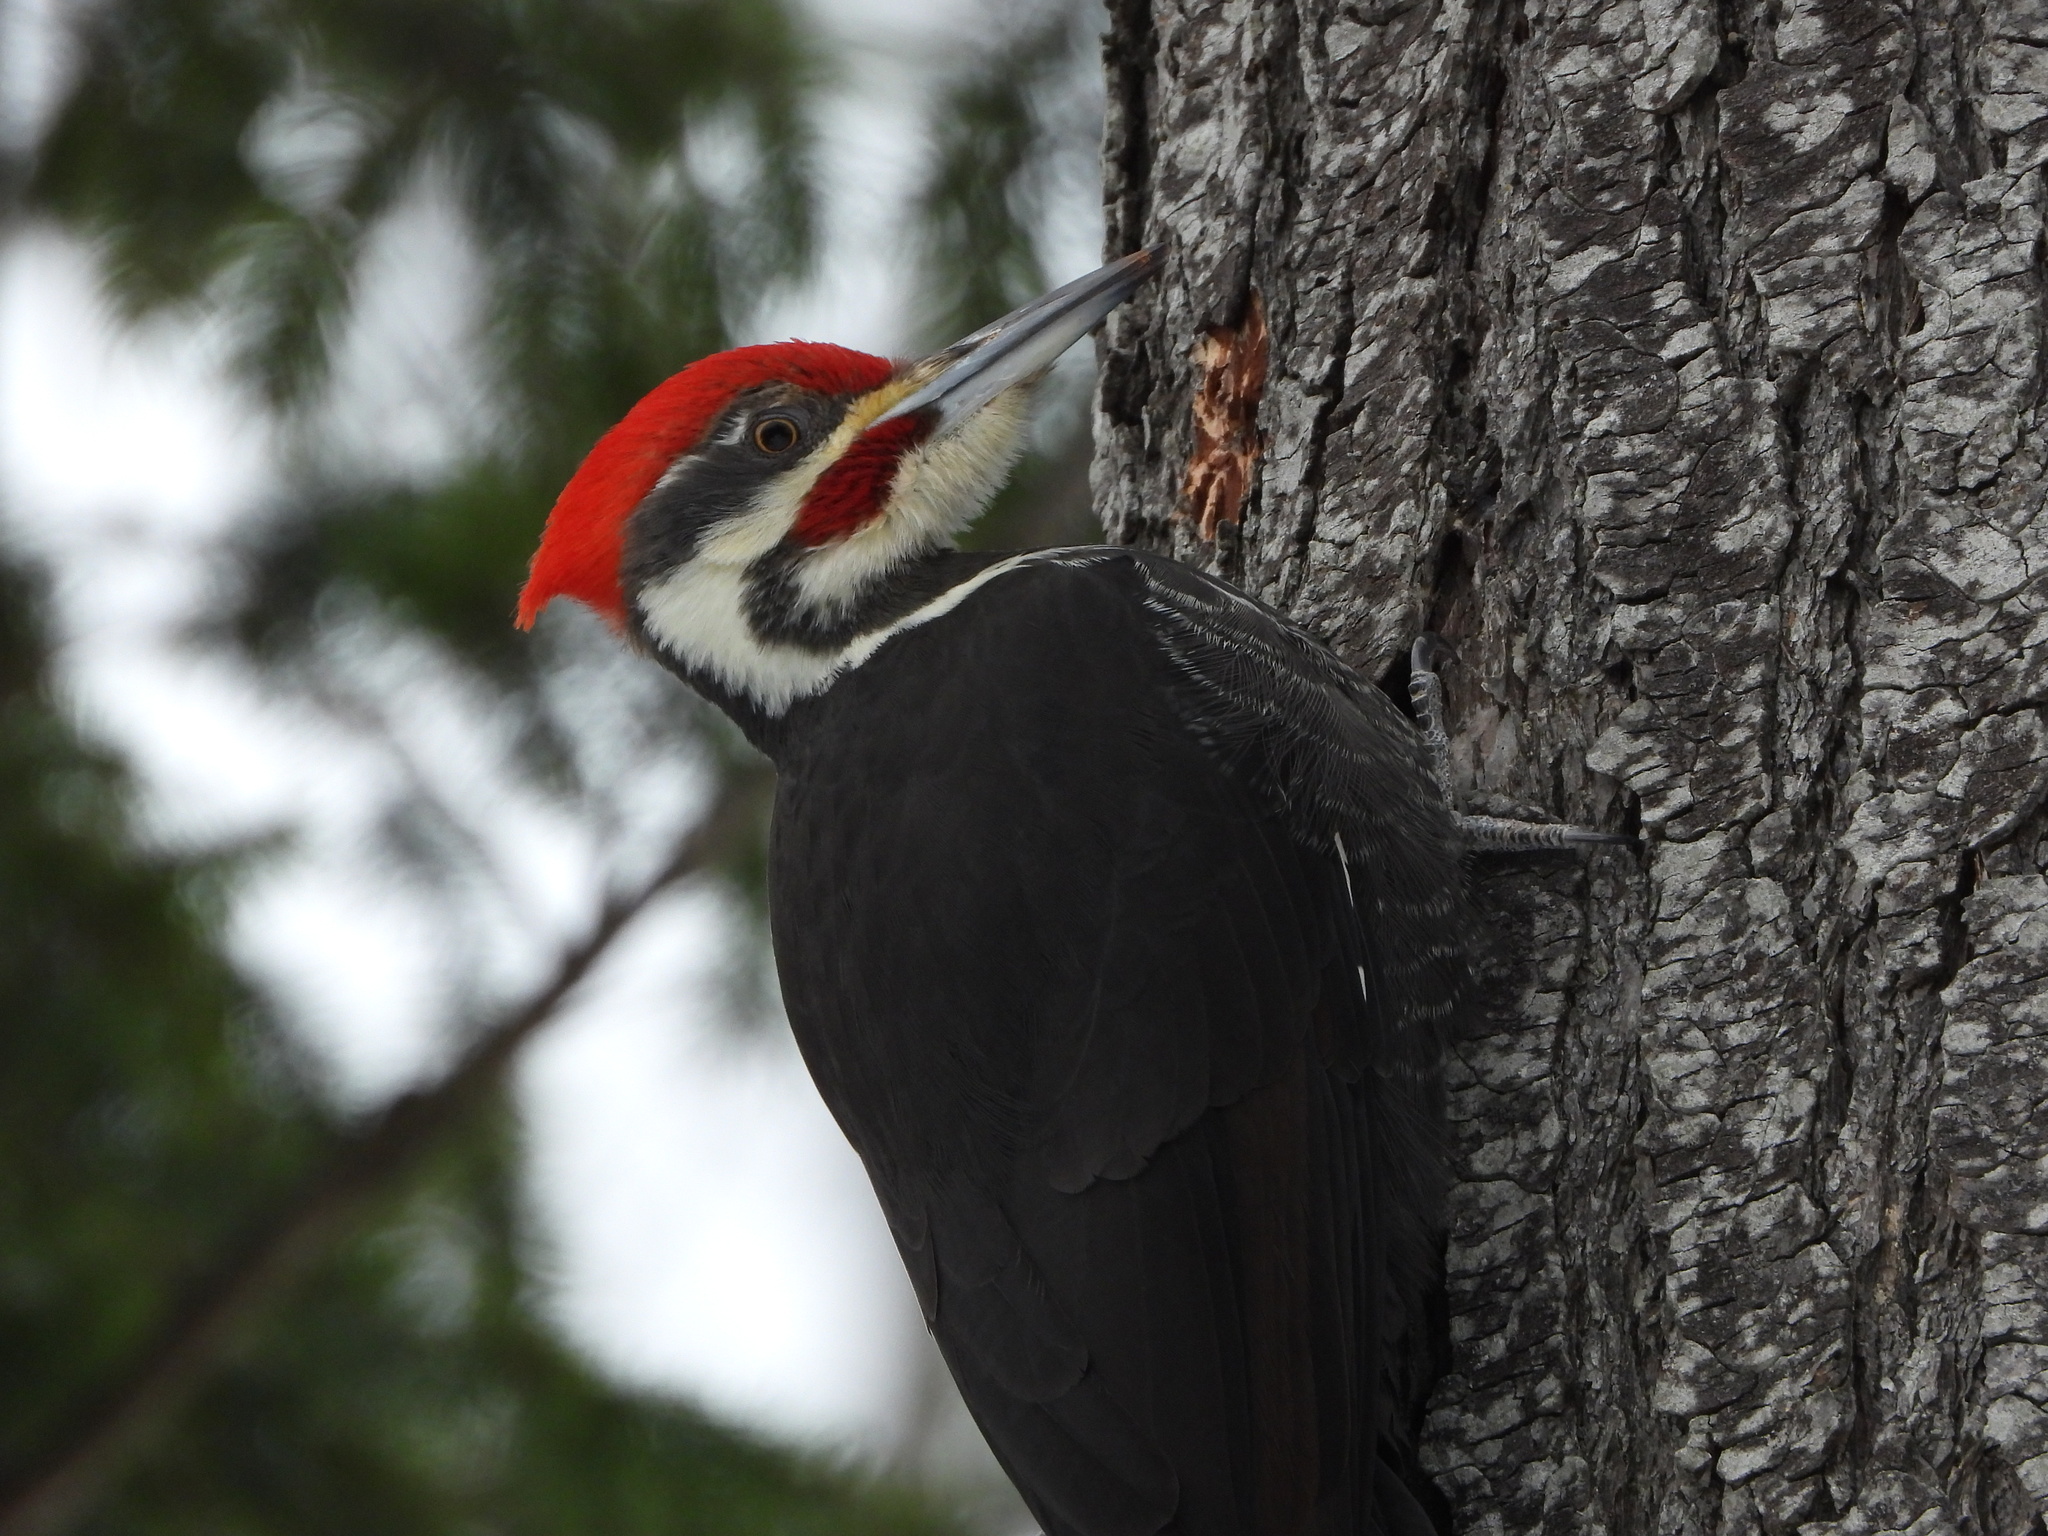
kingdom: Animalia
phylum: Chordata
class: Aves
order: Piciformes
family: Picidae
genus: Dryocopus
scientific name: Dryocopus pileatus
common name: Pileated woodpecker
